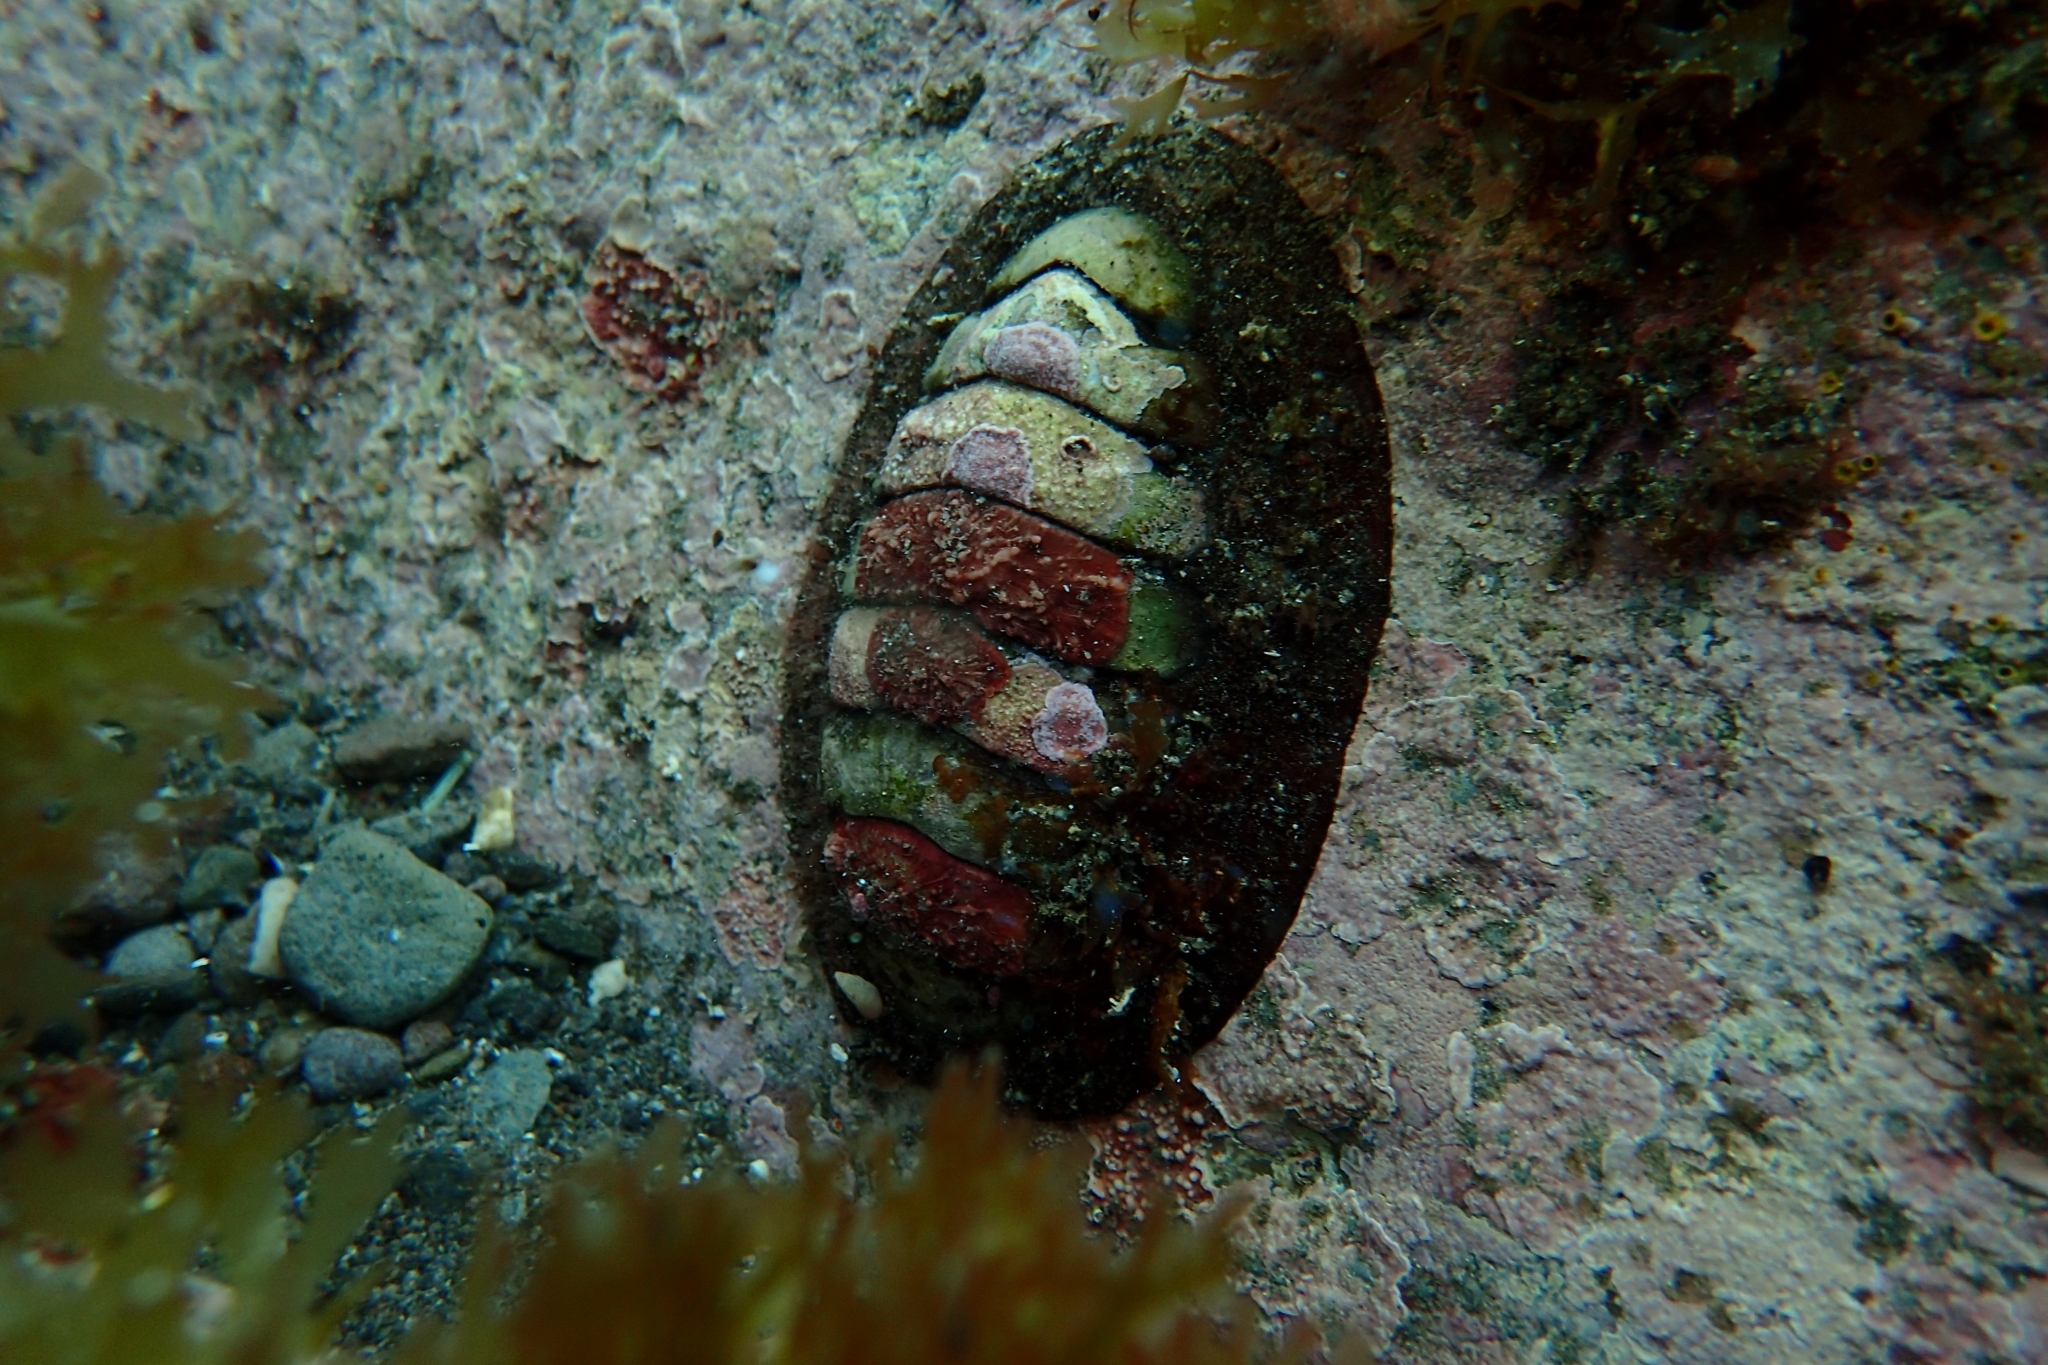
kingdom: Animalia
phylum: Mollusca
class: Polyplacophora
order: Callochitonida
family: Callochitonidae
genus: Eudoxochiton
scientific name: Eudoxochiton nobilis
